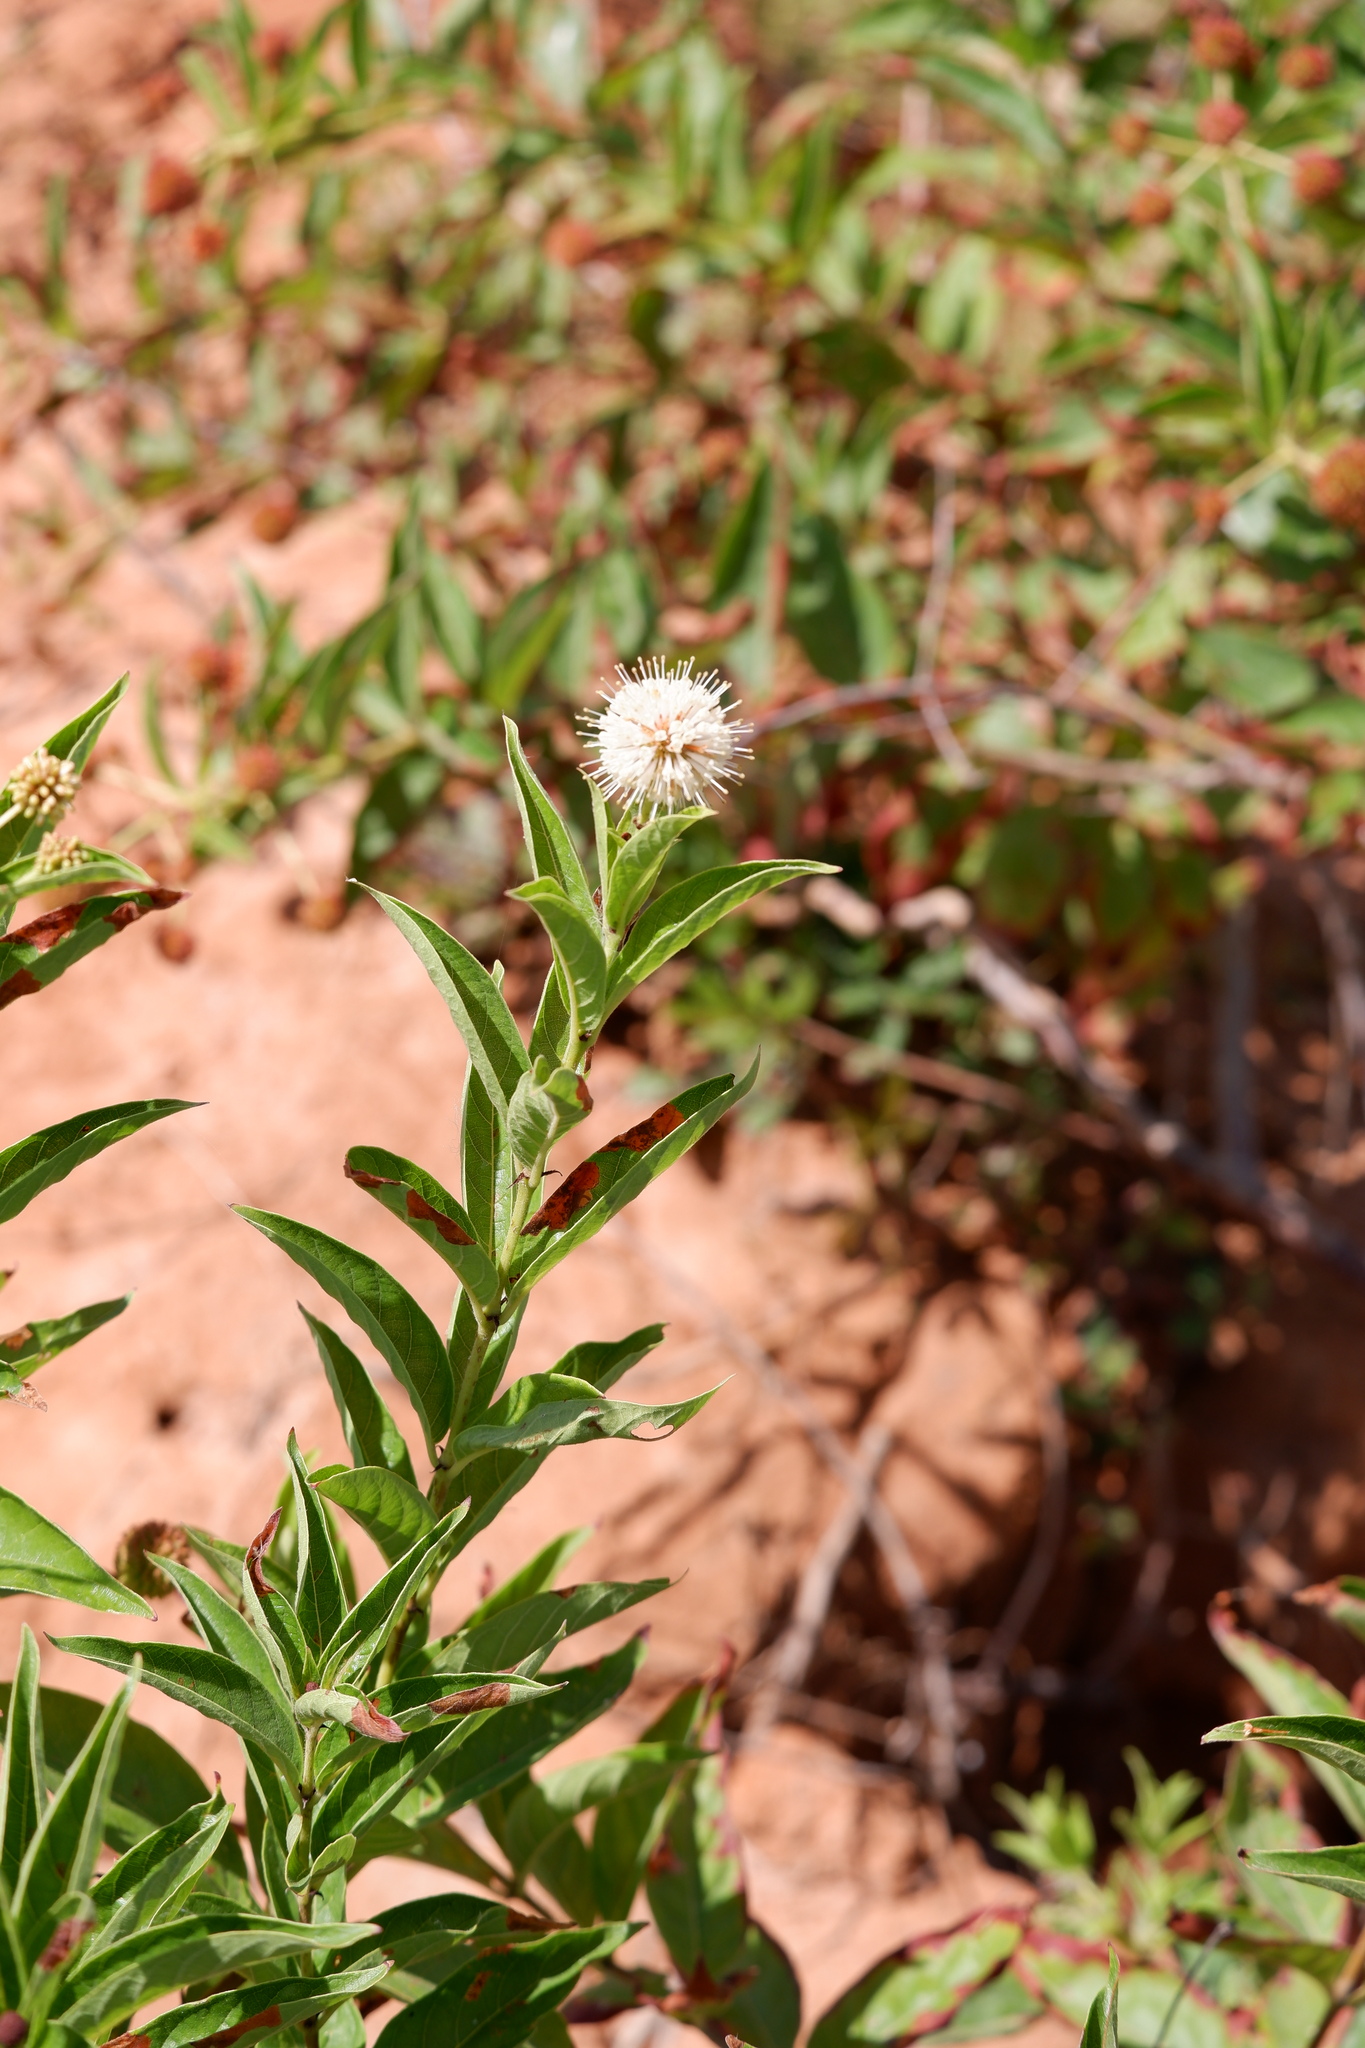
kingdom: Plantae
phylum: Tracheophyta
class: Magnoliopsida
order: Gentianales
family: Rubiaceae
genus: Cephalanthus
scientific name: Cephalanthus occidentalis
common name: Button-willow
